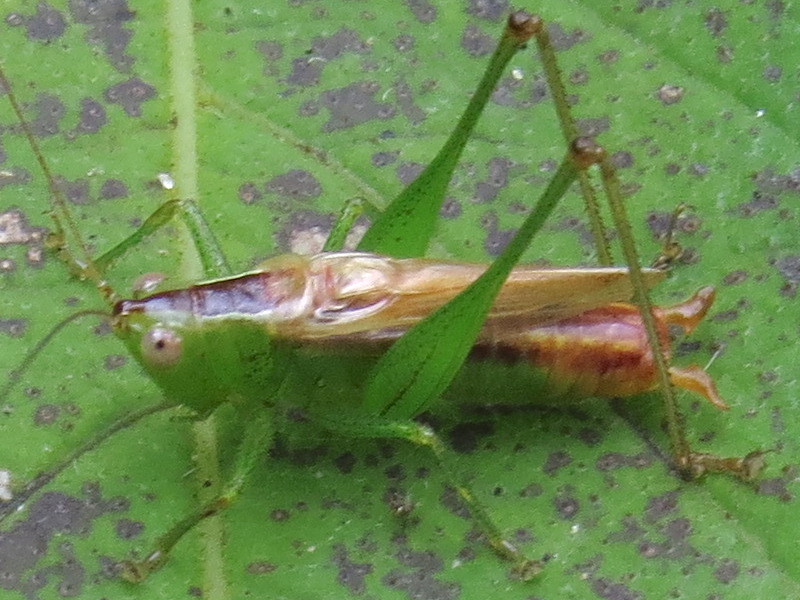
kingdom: Animalia
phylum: Arthropoda
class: Insecta
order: Orthoptera
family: Tettigoniidae
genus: Conocephalus
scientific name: Conocephalus brevipennis
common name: Short-winged meadow katydid
